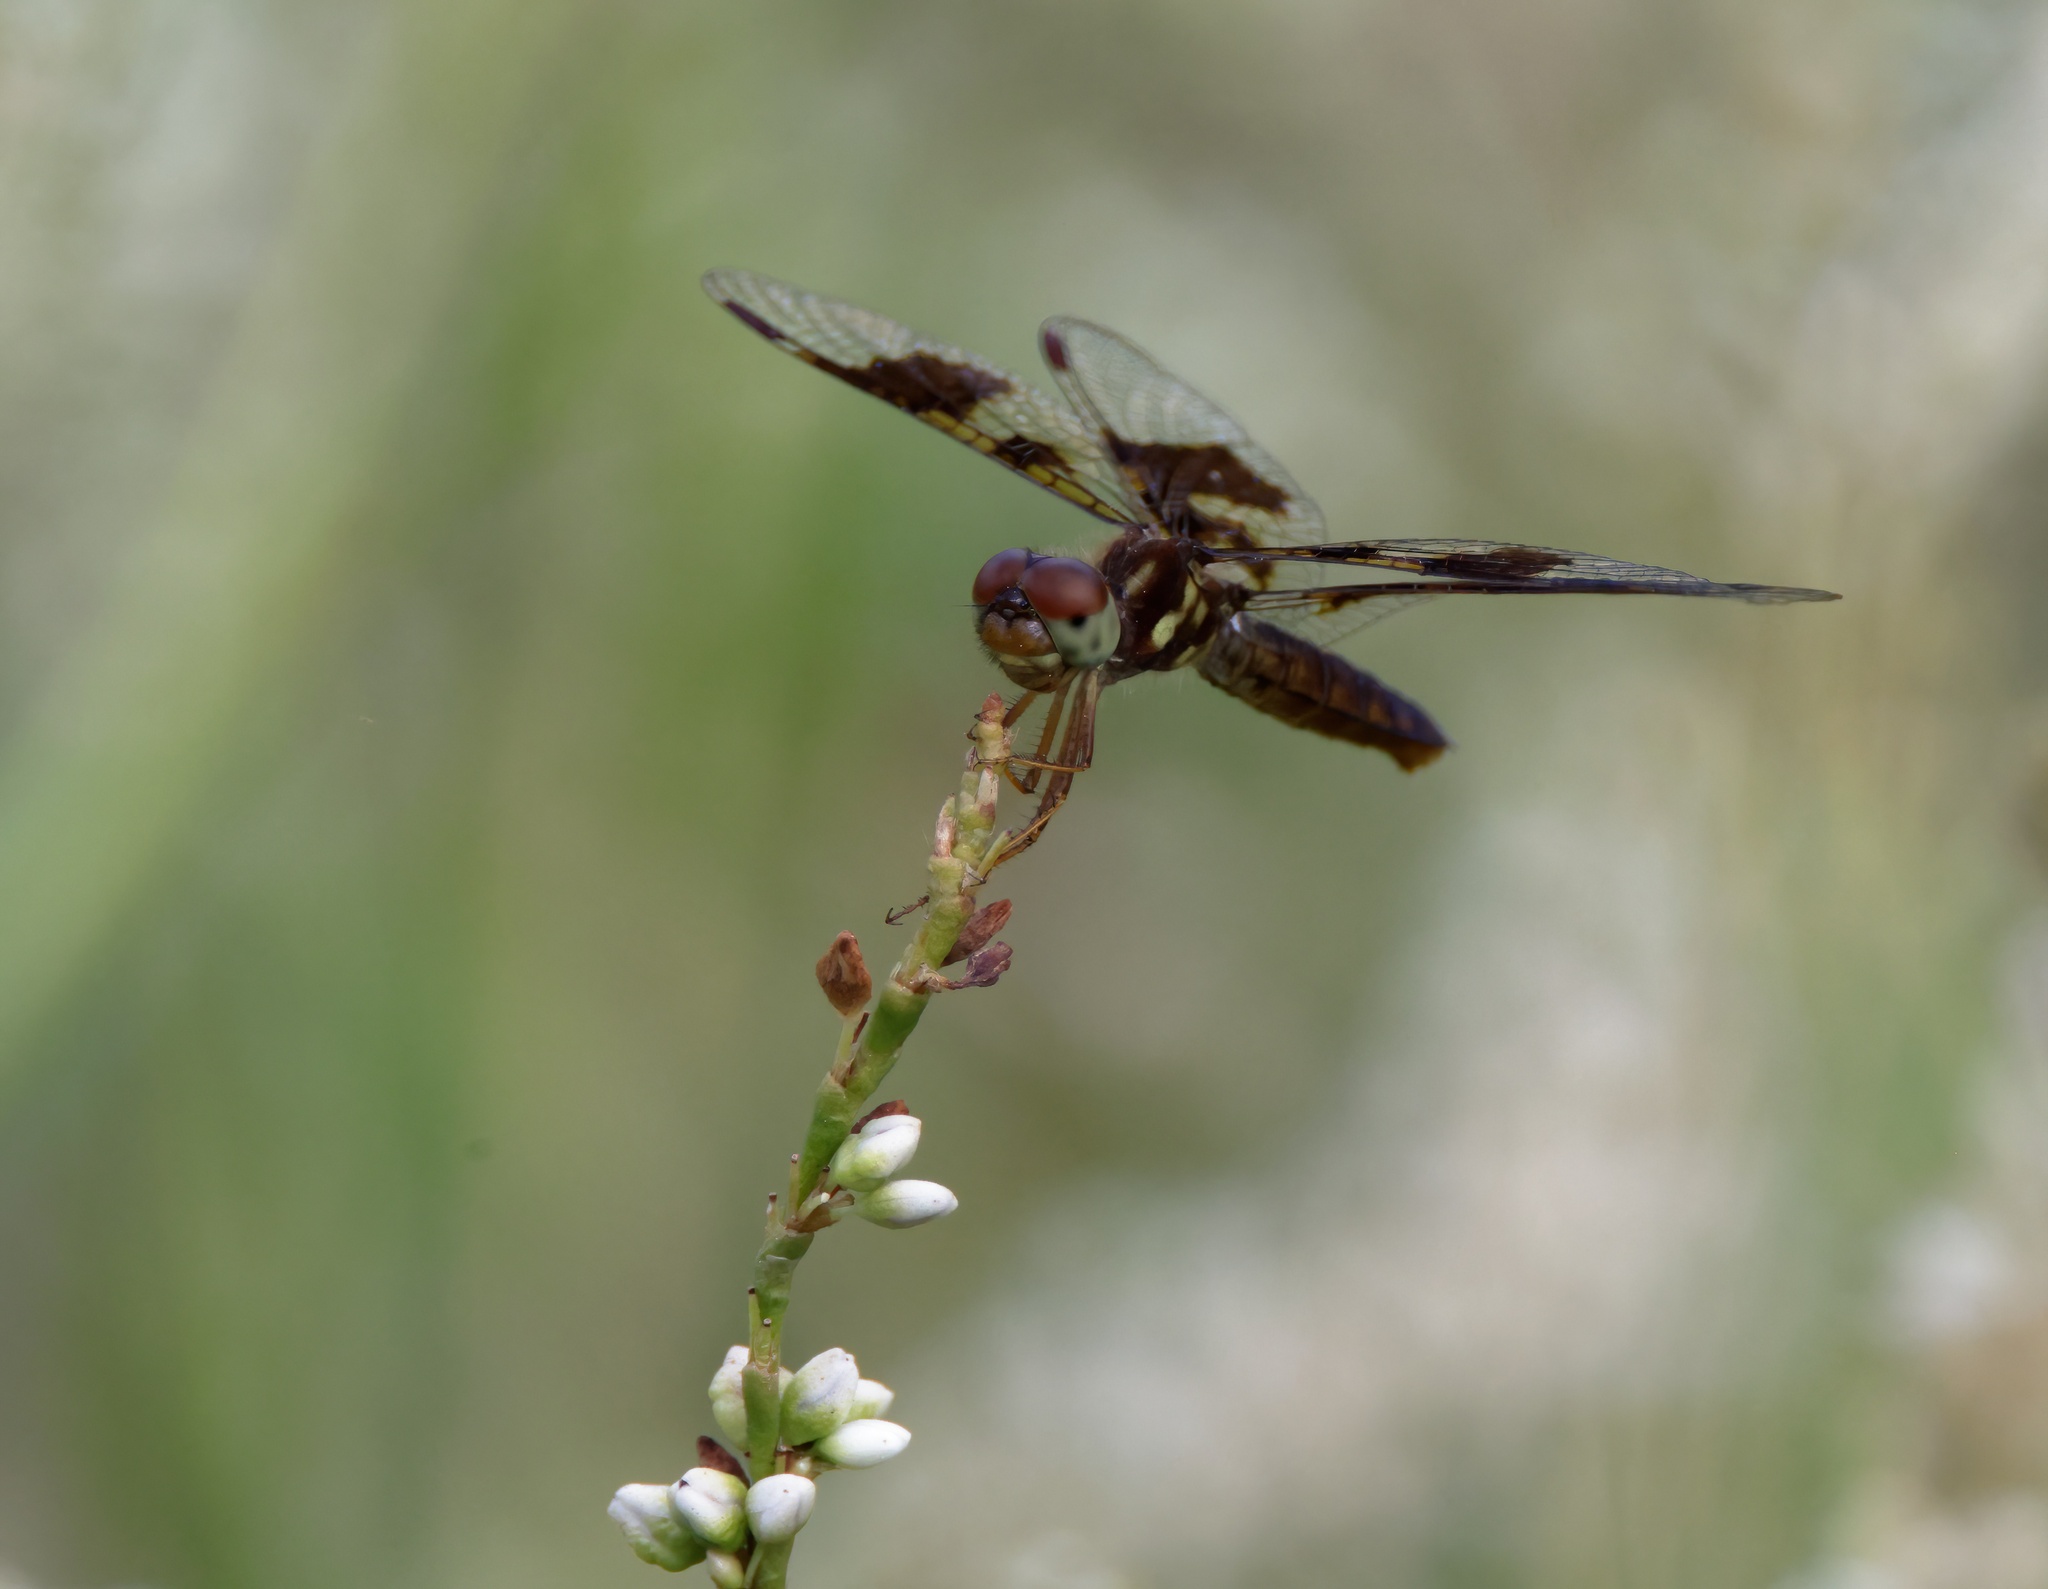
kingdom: Animalia
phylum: Arthropoda
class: Insecta
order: Odonata
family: Libellulidae
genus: Perithemis
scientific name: Perithemis tenera
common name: Eastern amberwing
